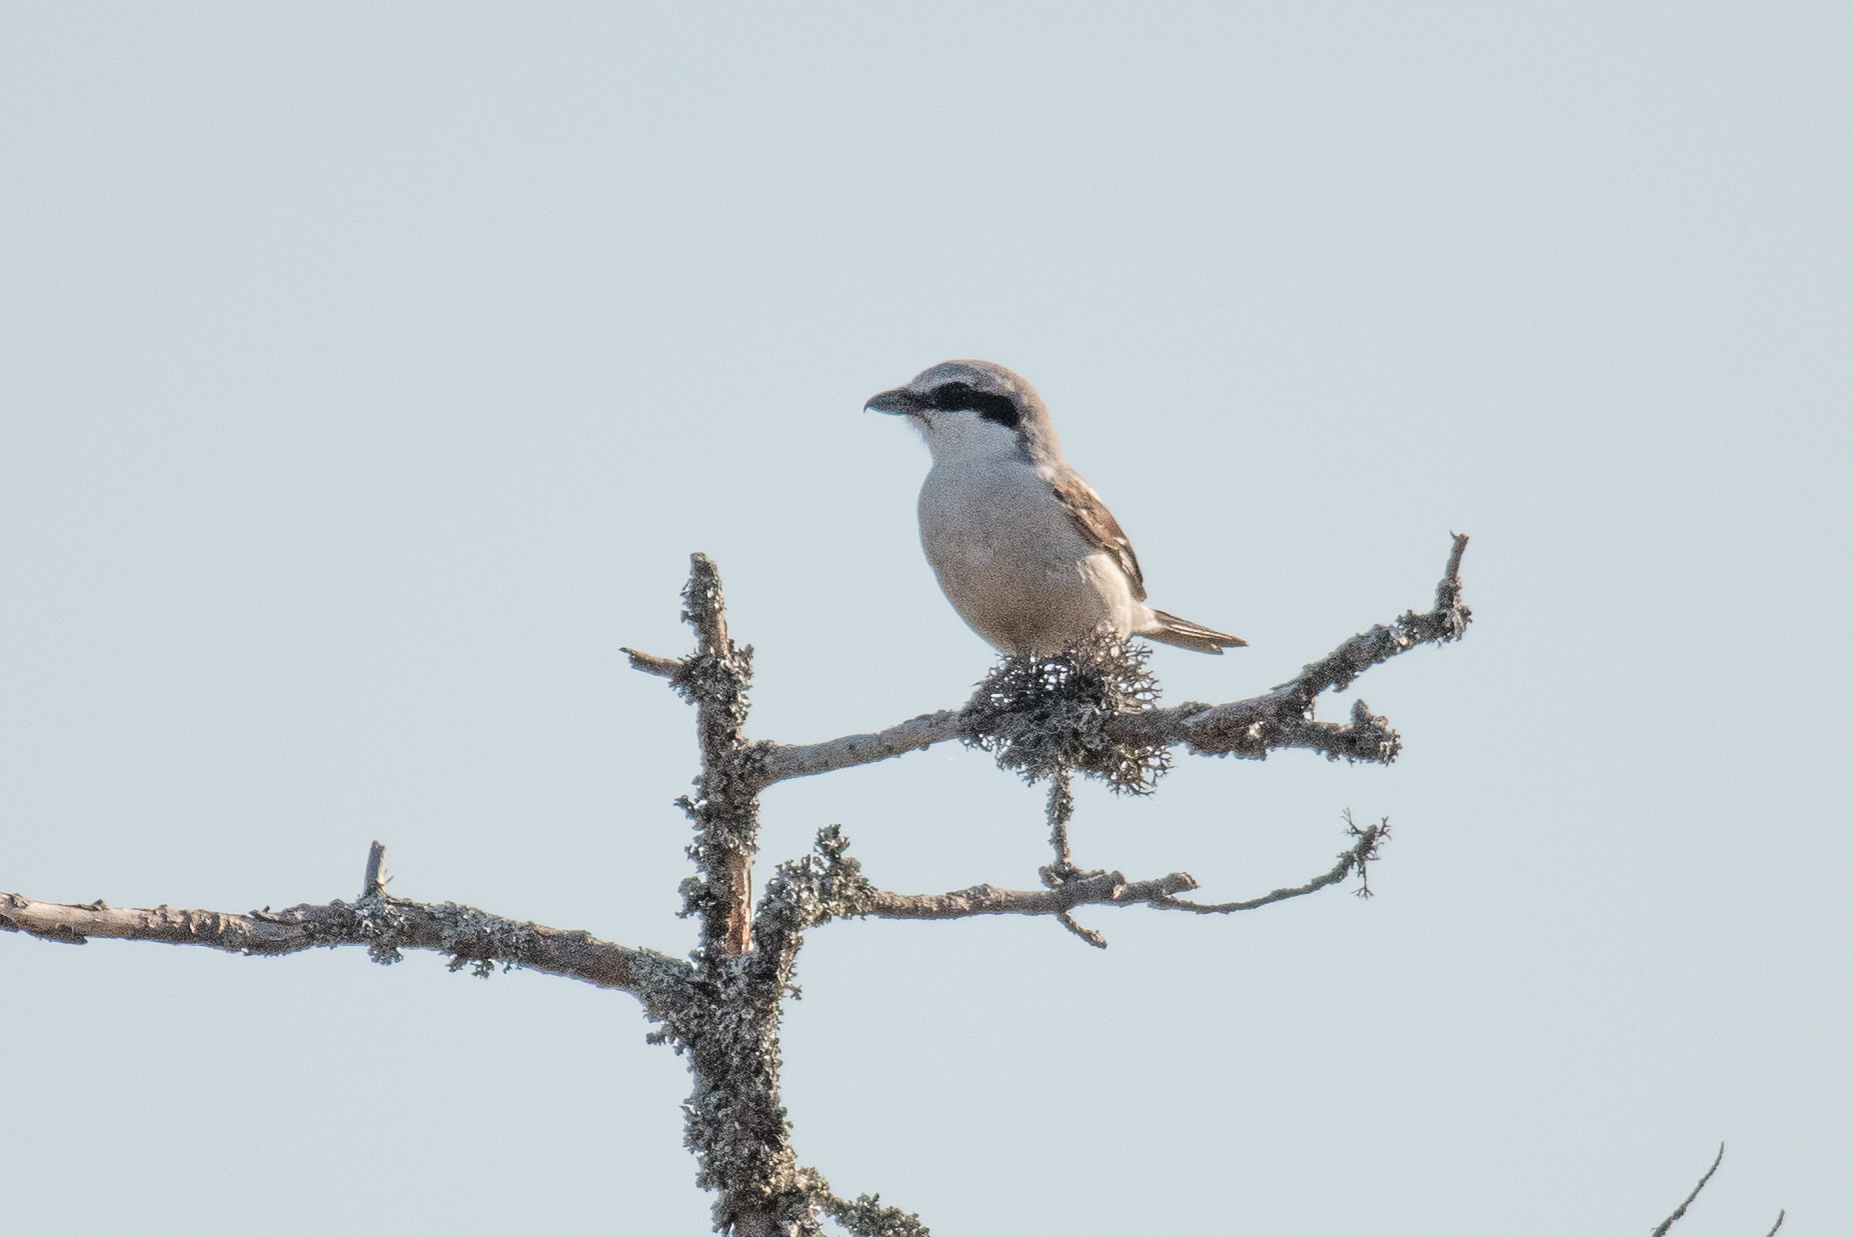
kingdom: Animalia
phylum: Chordata
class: Aves
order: Passeriformes
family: Laniidae
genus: Lanius
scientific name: Lanius excubitor
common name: Great grey shrike
